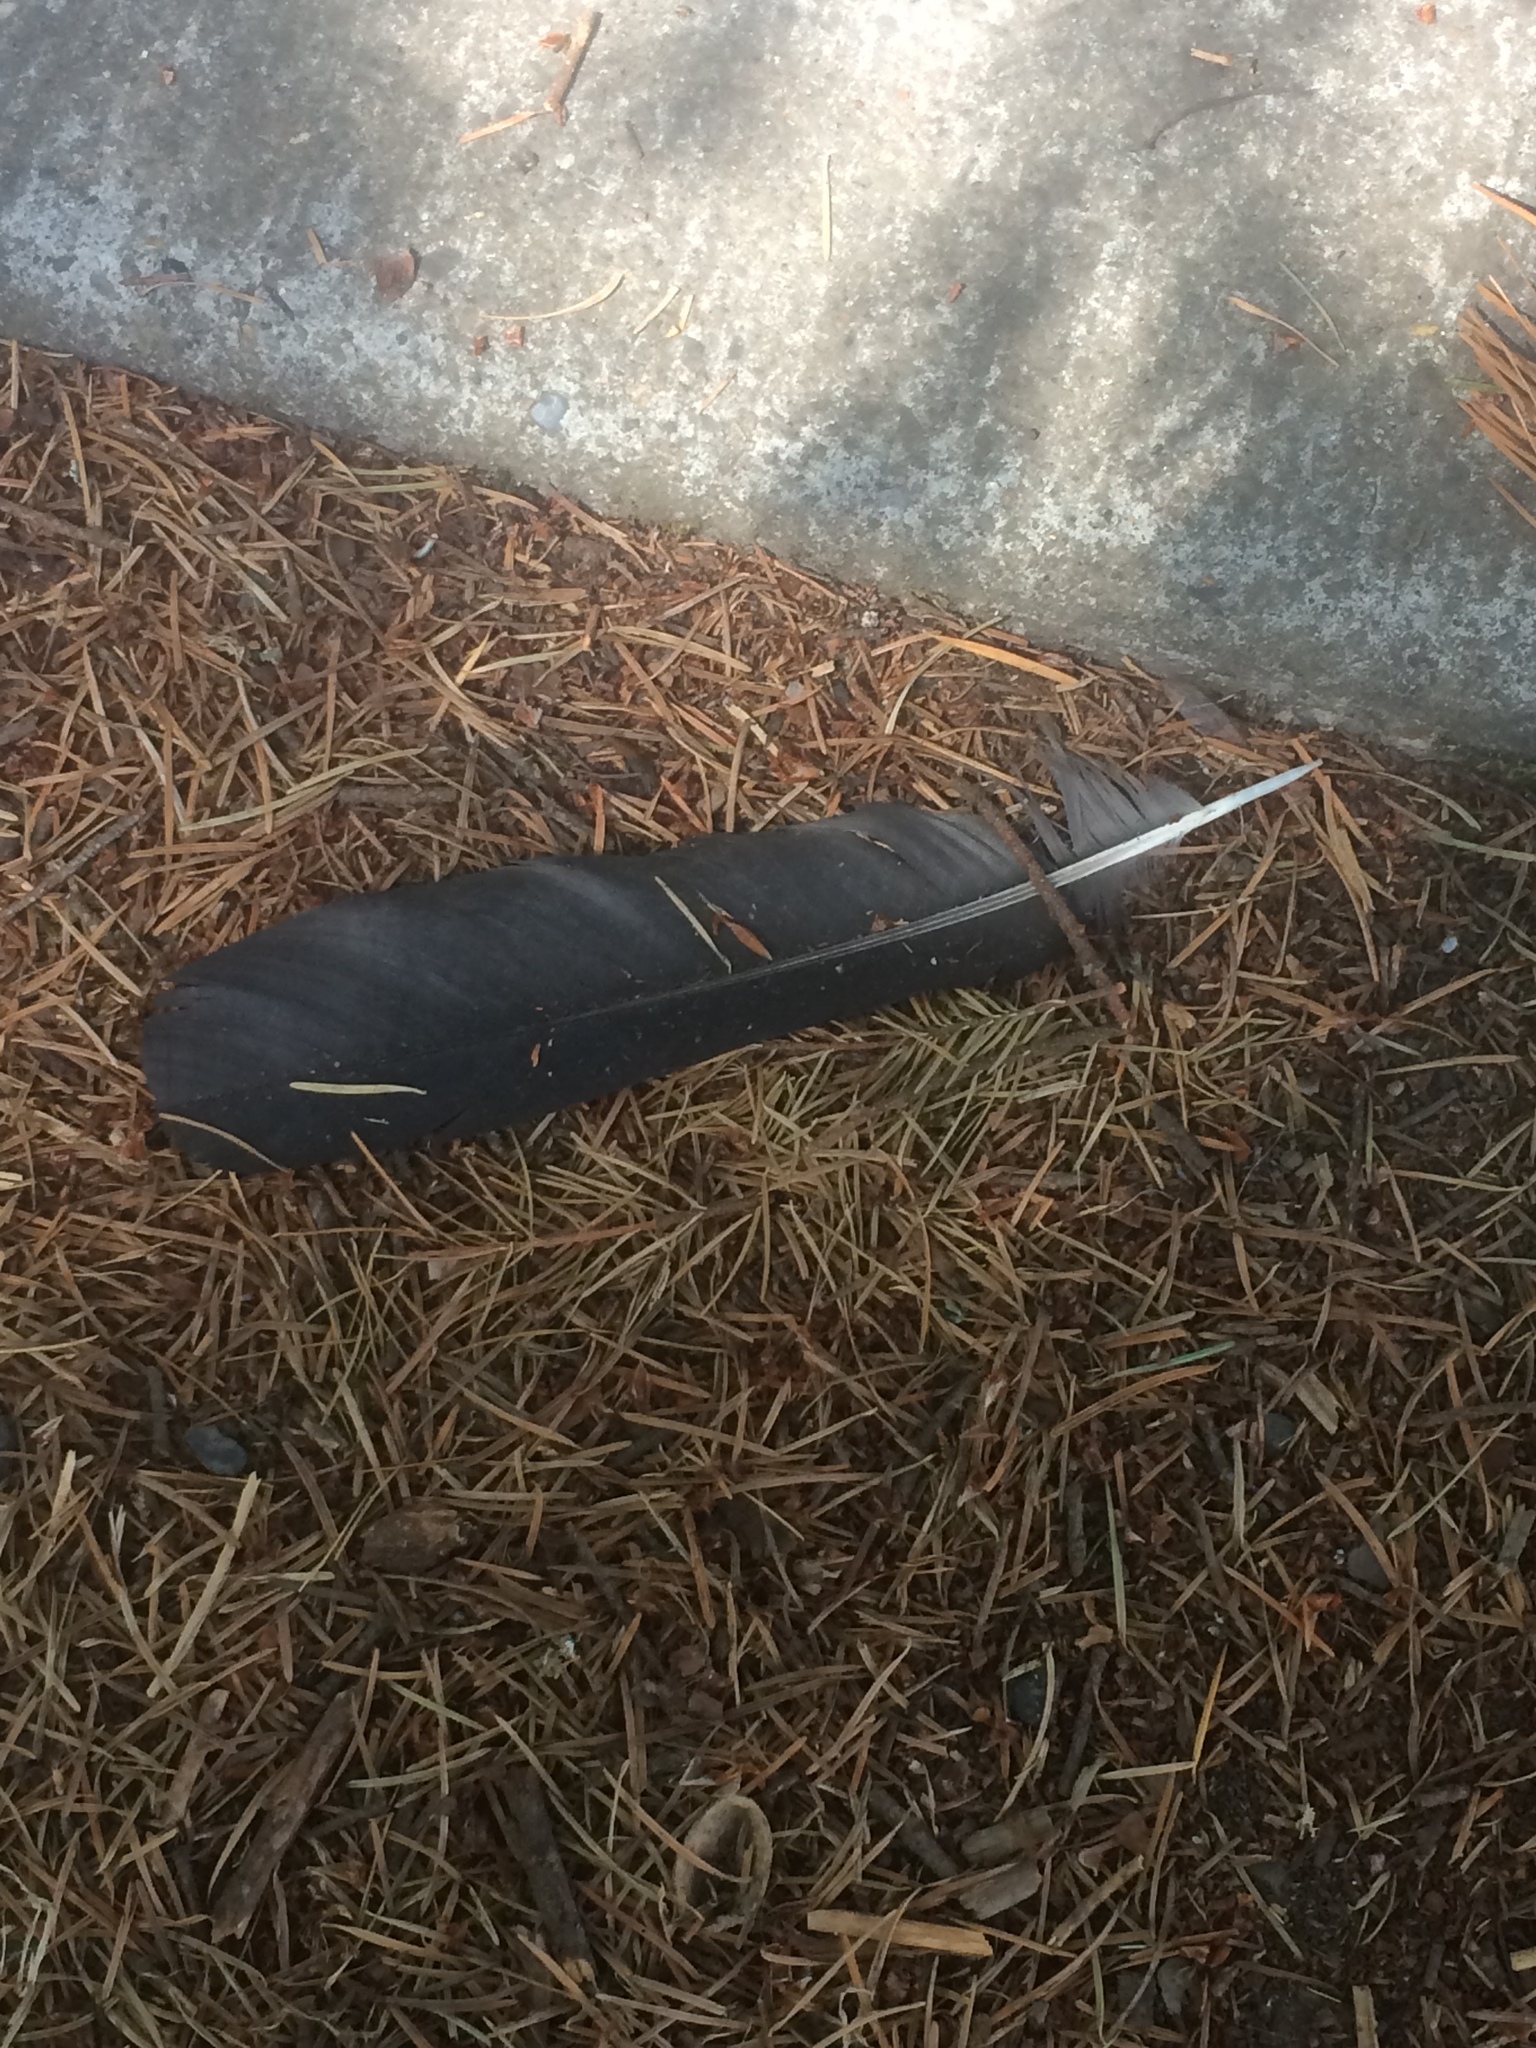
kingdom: Animalia
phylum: Chordata
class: Aves
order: Passeriformes
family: Corvidae
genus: Corvus
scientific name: Corvus brachyrhynchos
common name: American crow
